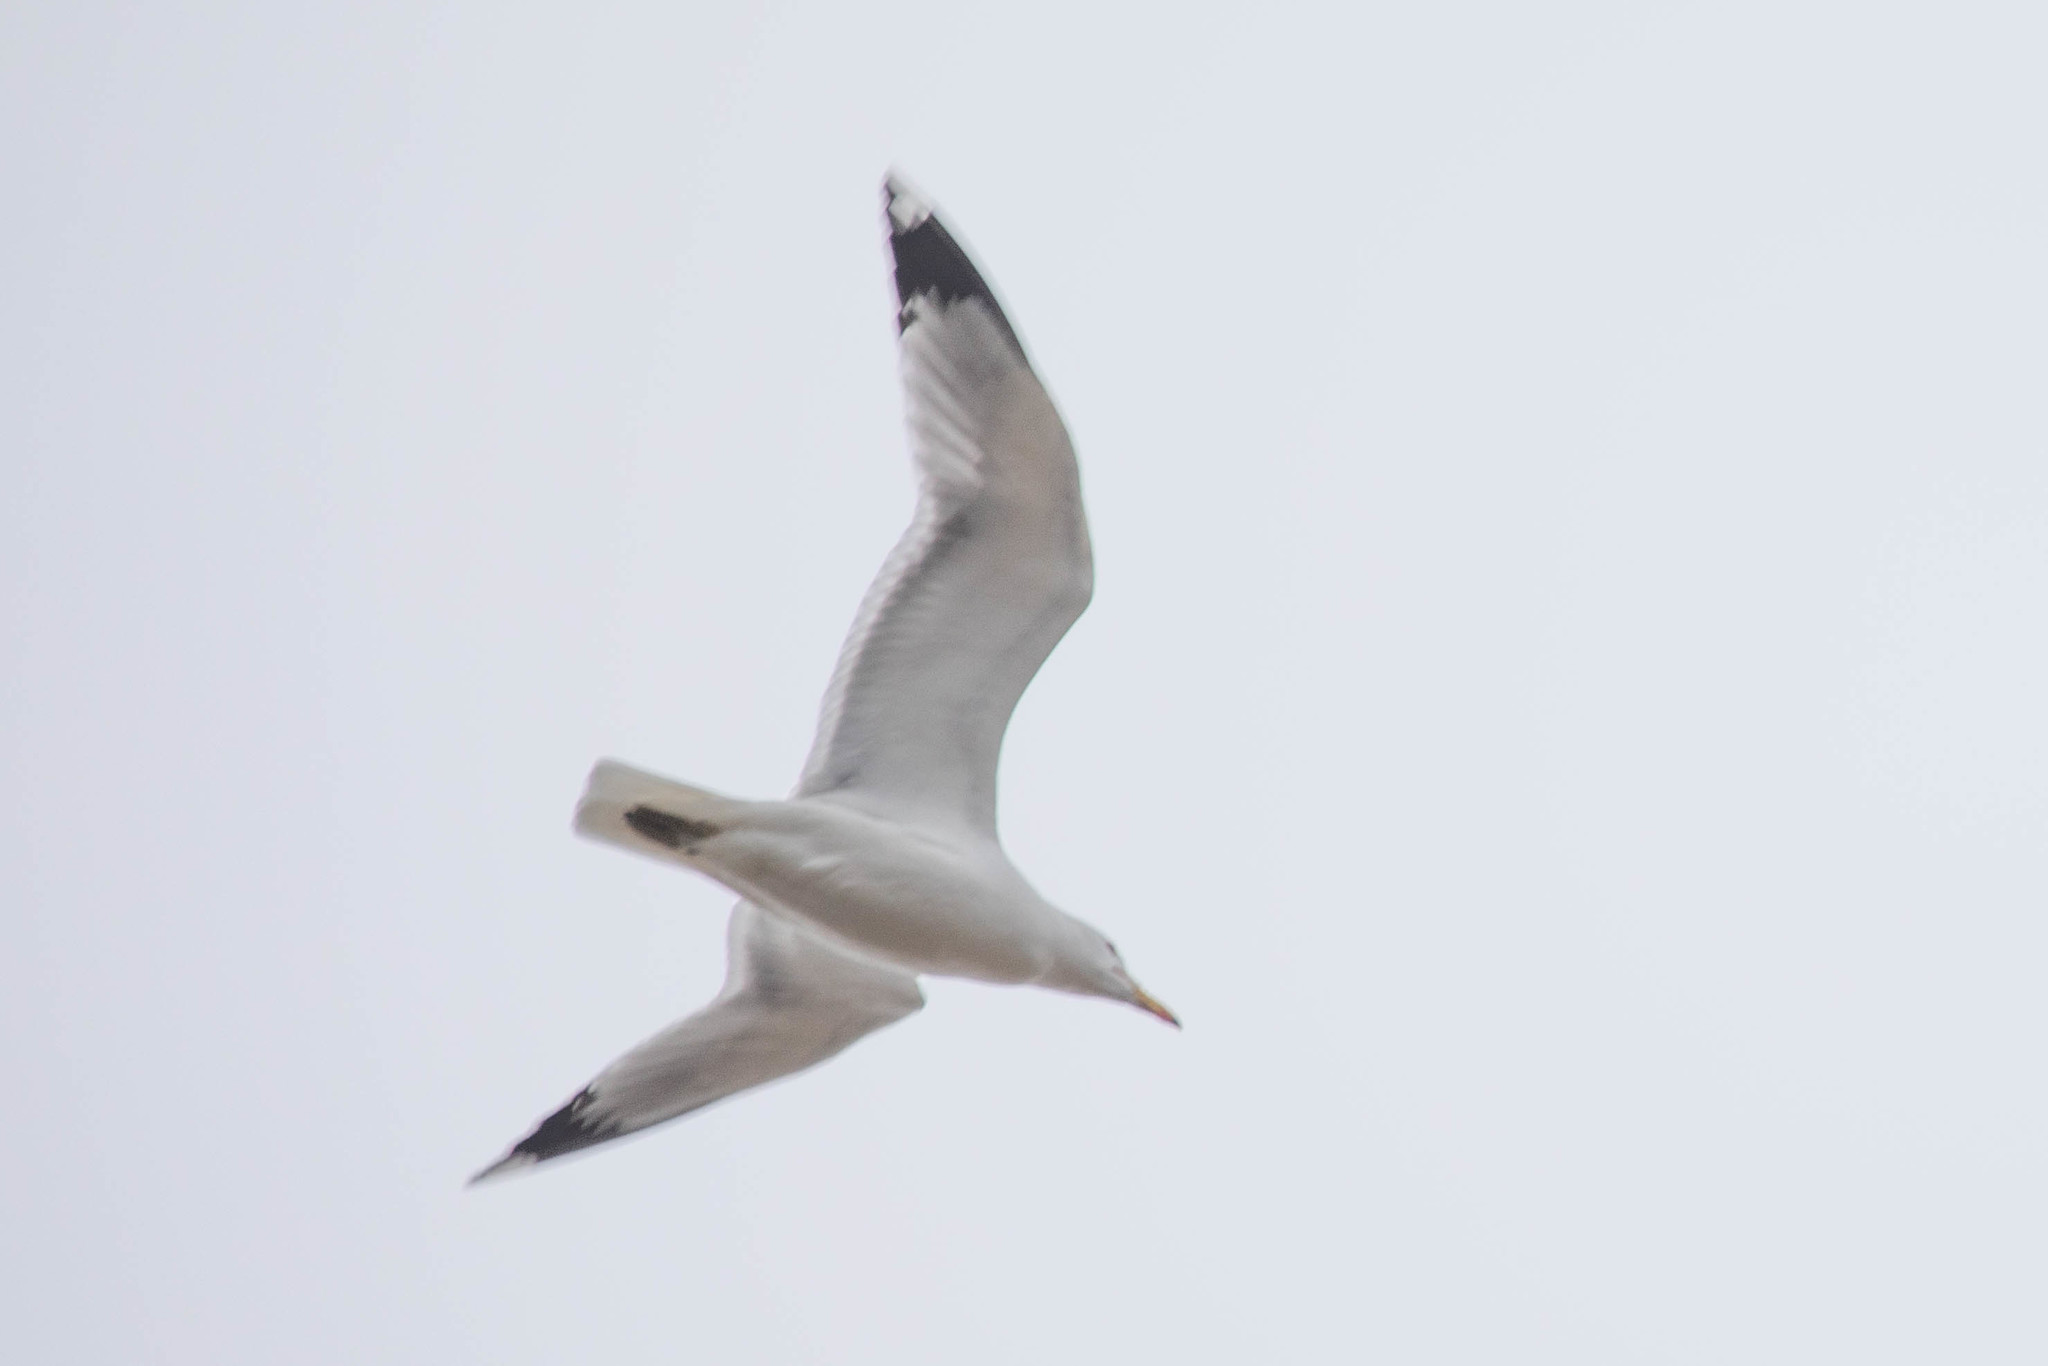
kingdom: Animalia
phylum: Chordata
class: Aves
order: Charadriiformes
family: Laridae
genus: Larus
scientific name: Larus californicus
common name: California gull
